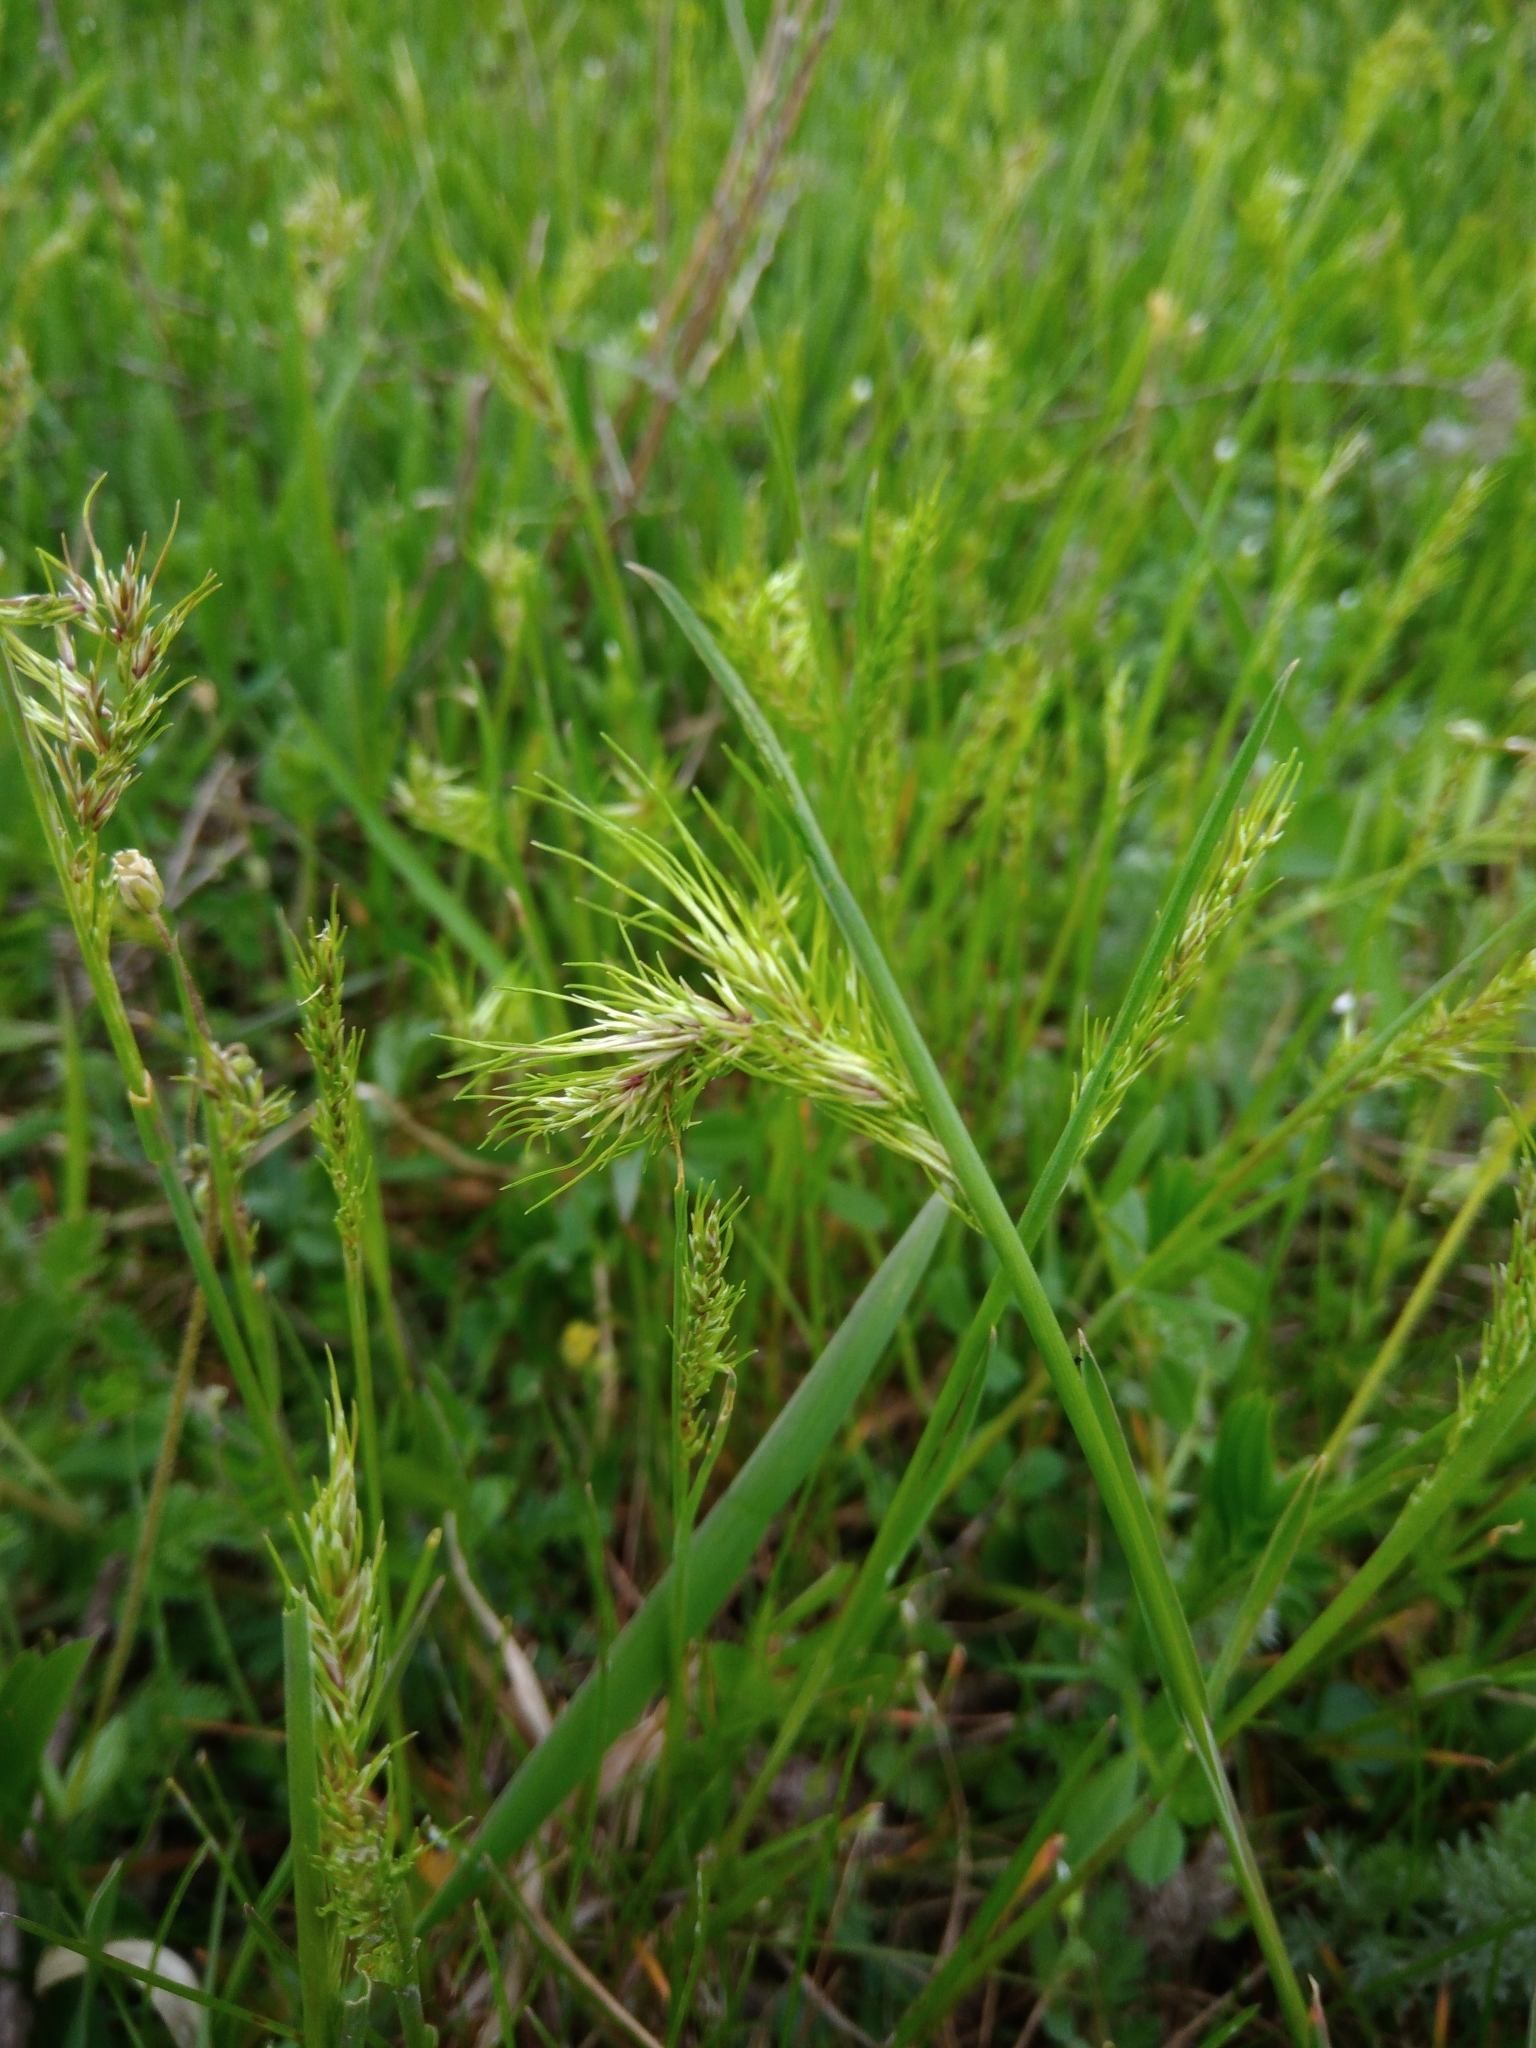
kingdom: Plantae
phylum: Tracheophyta
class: Liliopsida
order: Poales
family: Poaceae
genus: Poa
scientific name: Poa bulbosa
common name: Bulbous bluegrass
